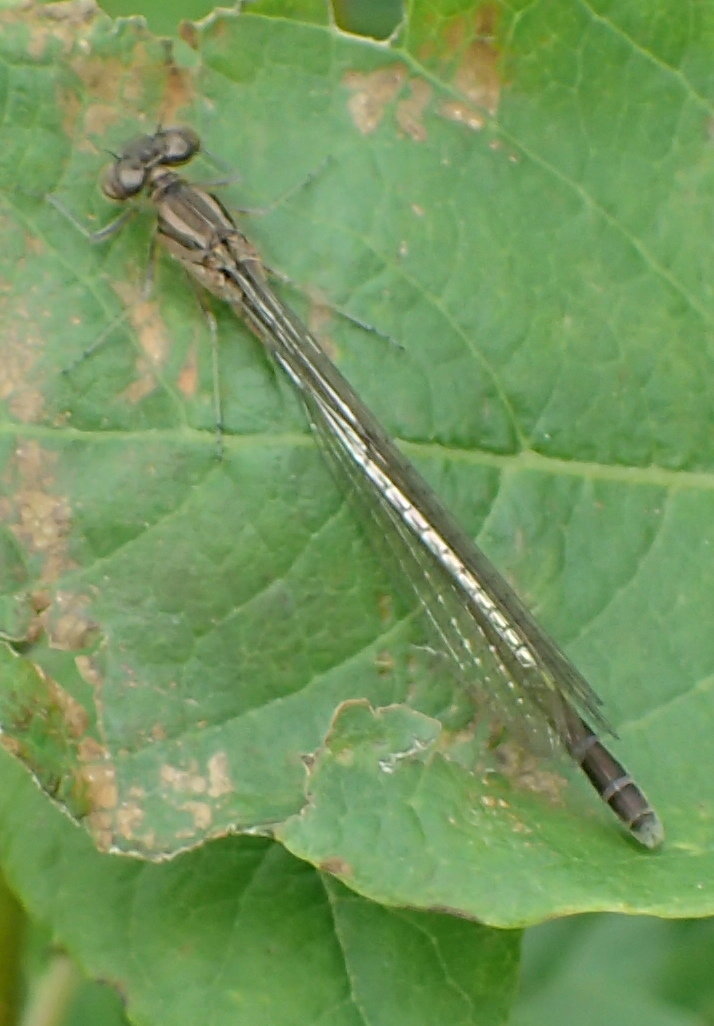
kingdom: Animalia
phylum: Arthropoda
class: Insecta
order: Odonata
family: Coenagrionidae
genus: Coenagrion
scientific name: Coenagrion resolutum
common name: Taiga bluet
